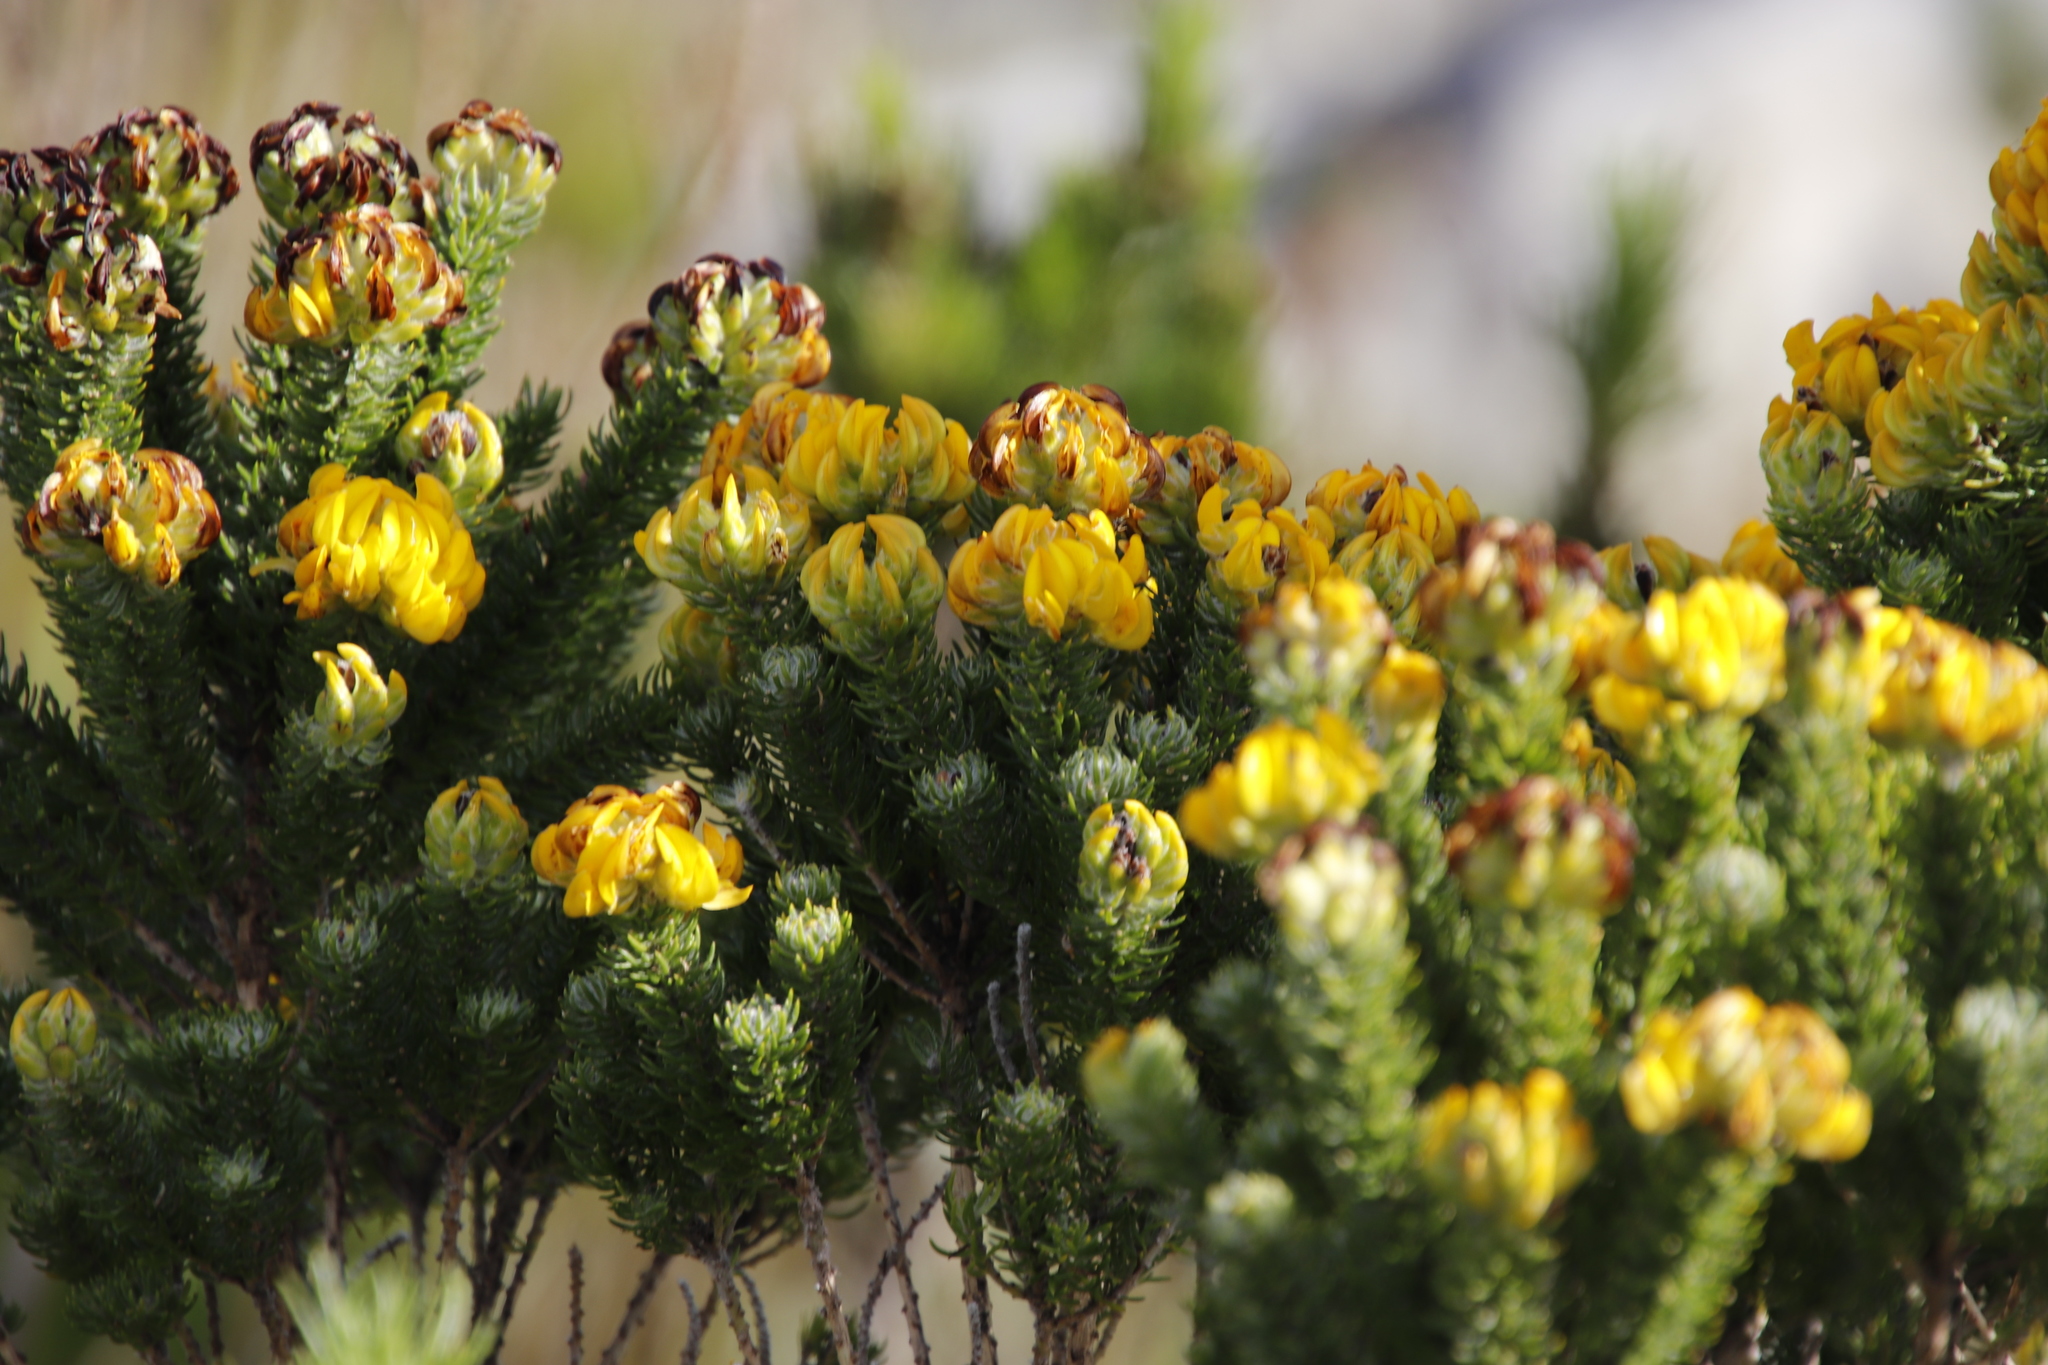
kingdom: Plantae
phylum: Tracheophyta
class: Magnoliopsida
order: Fabales
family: Fabaceae
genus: Aspalathus
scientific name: Aspalathus capitata
